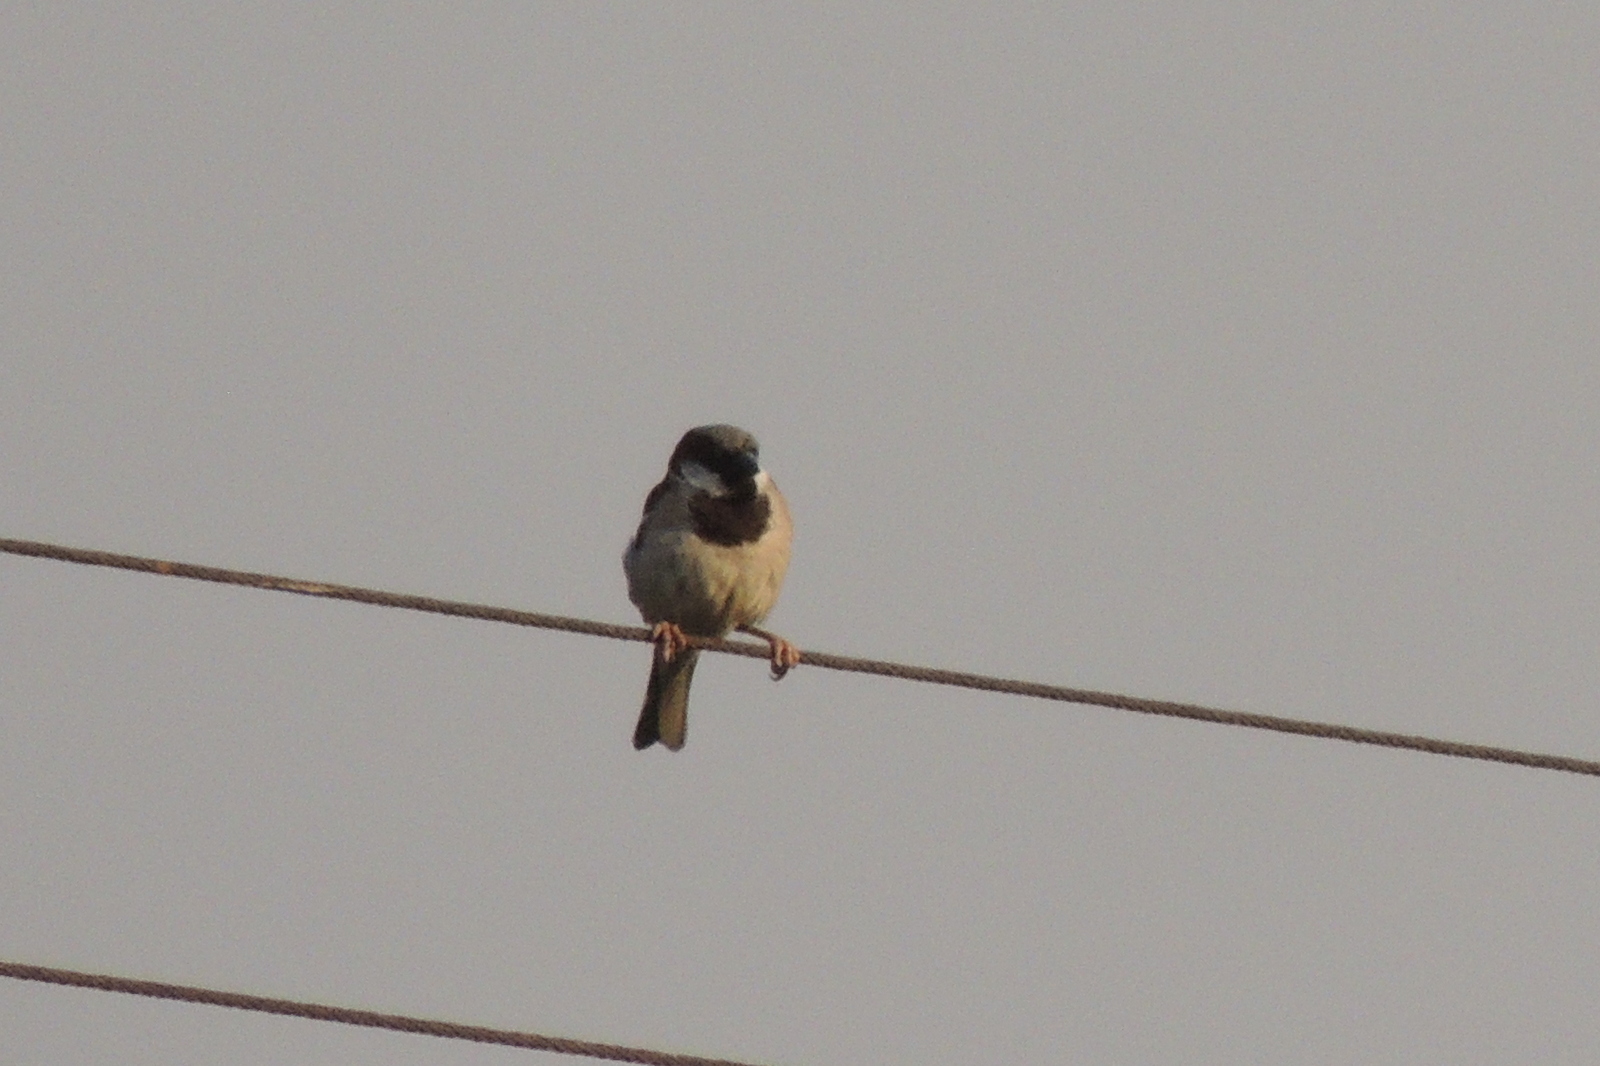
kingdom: Animalia
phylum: Chordata
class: Aves
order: Passeriformes
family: Passeridae
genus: Passer
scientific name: Passer domesticus
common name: House sparrow
